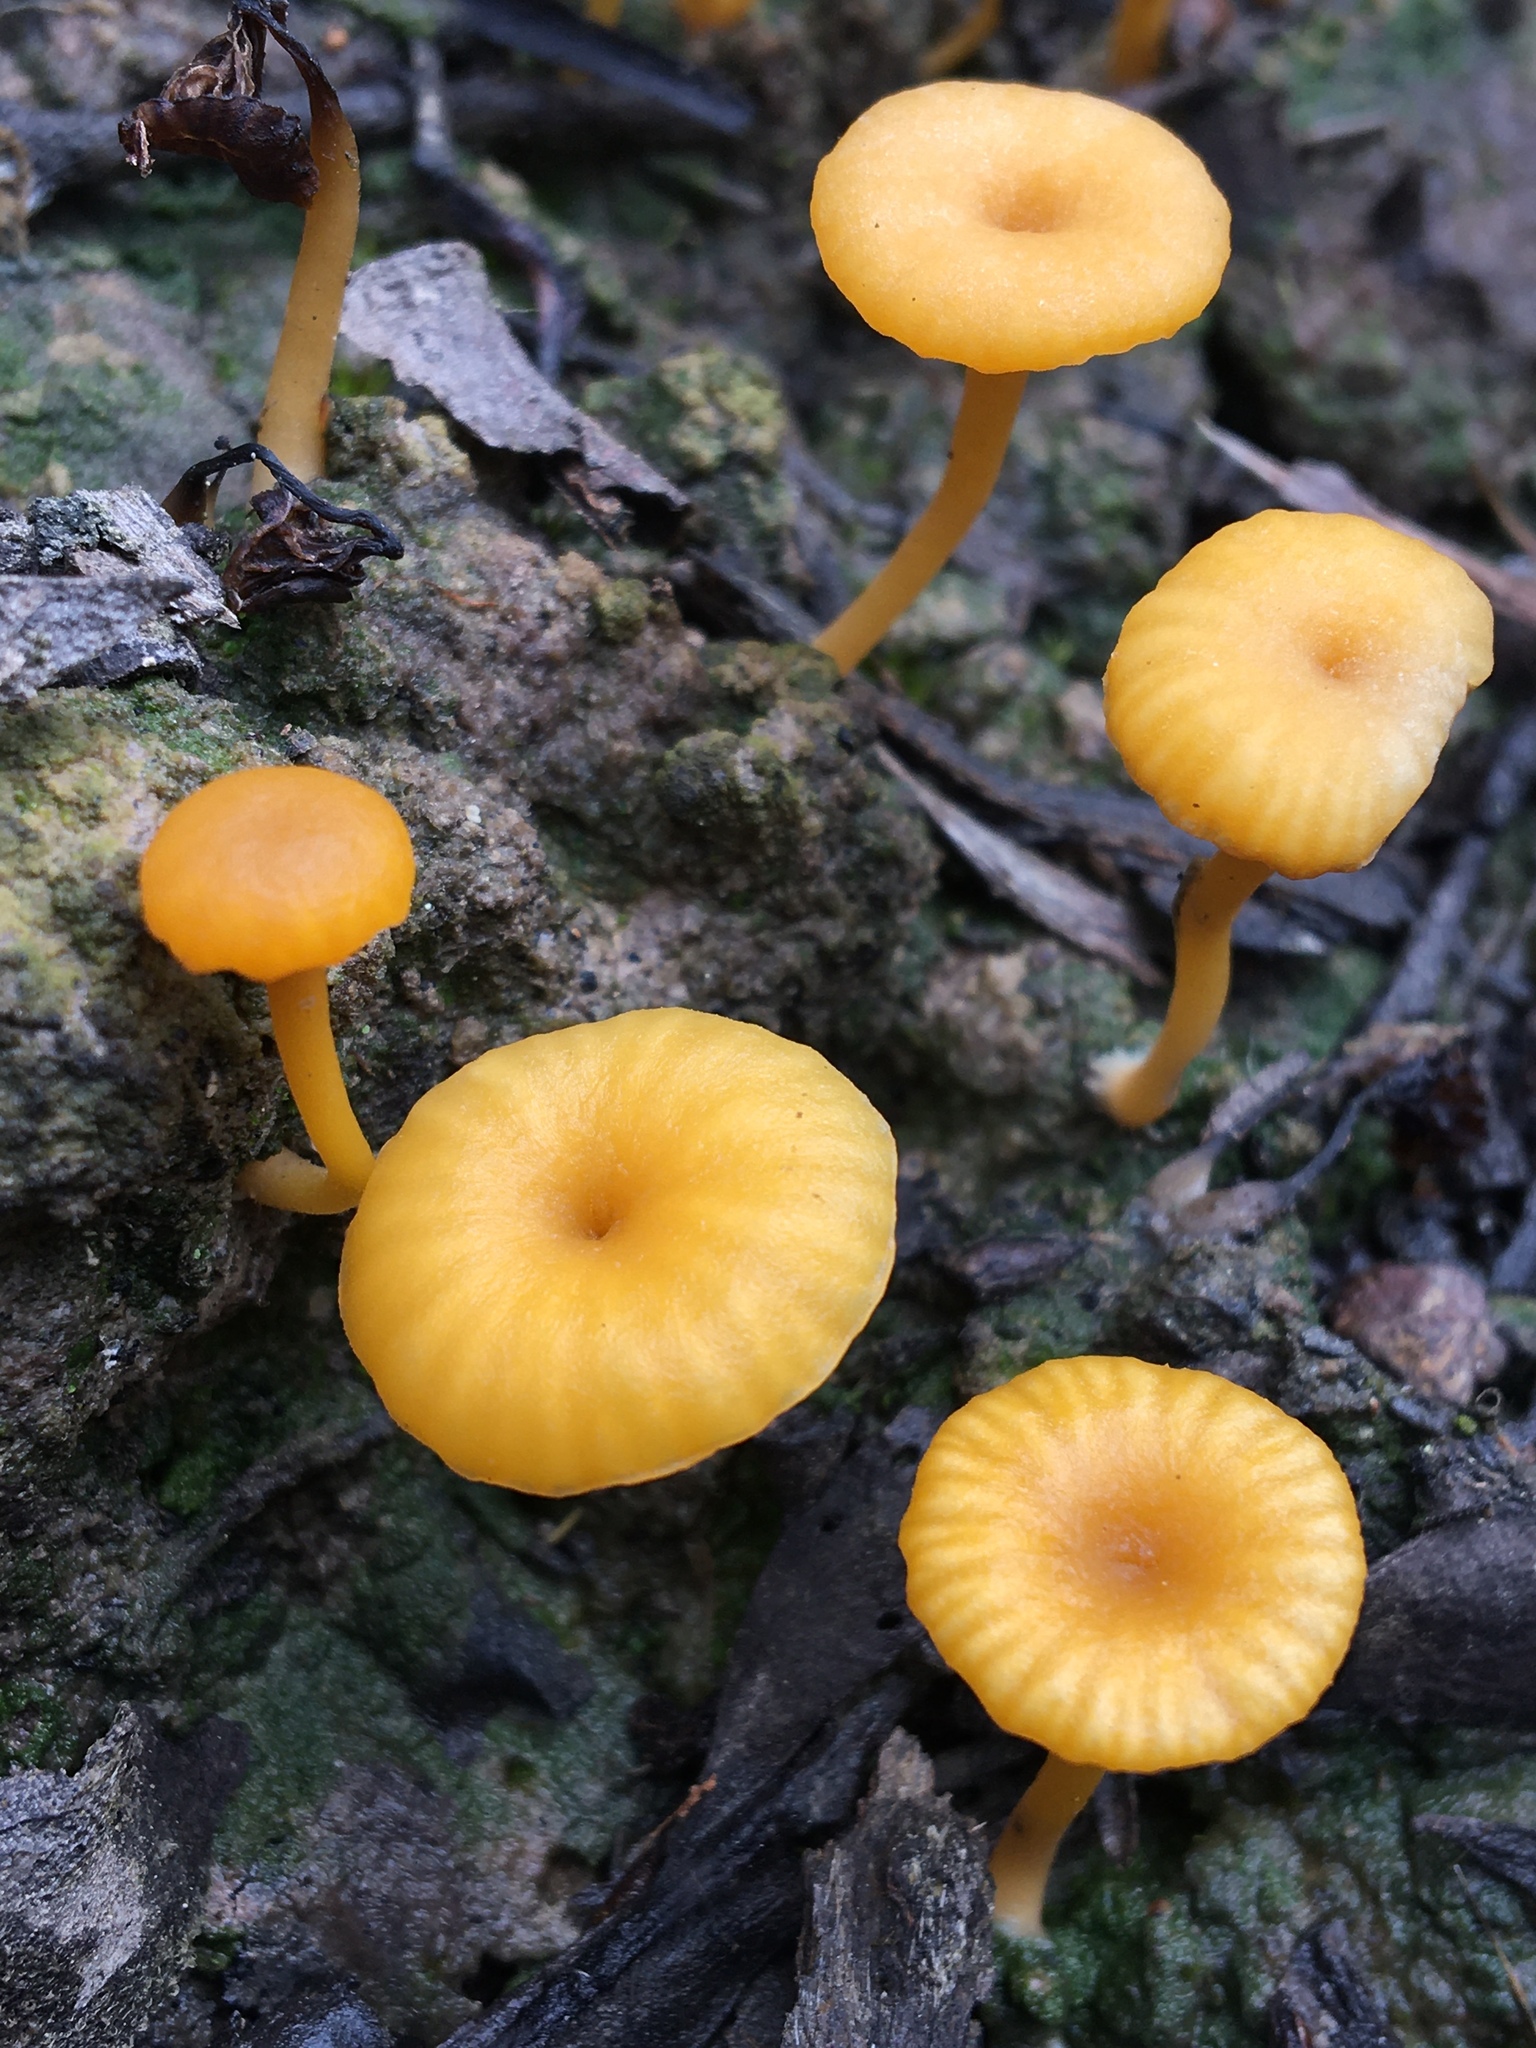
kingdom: Fungi
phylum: Basidiomycota
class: Agaricomycetes
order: Agaricales
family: Hygrophoraceae
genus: Lichenomphalia
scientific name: Lichenomphalia chromacea
